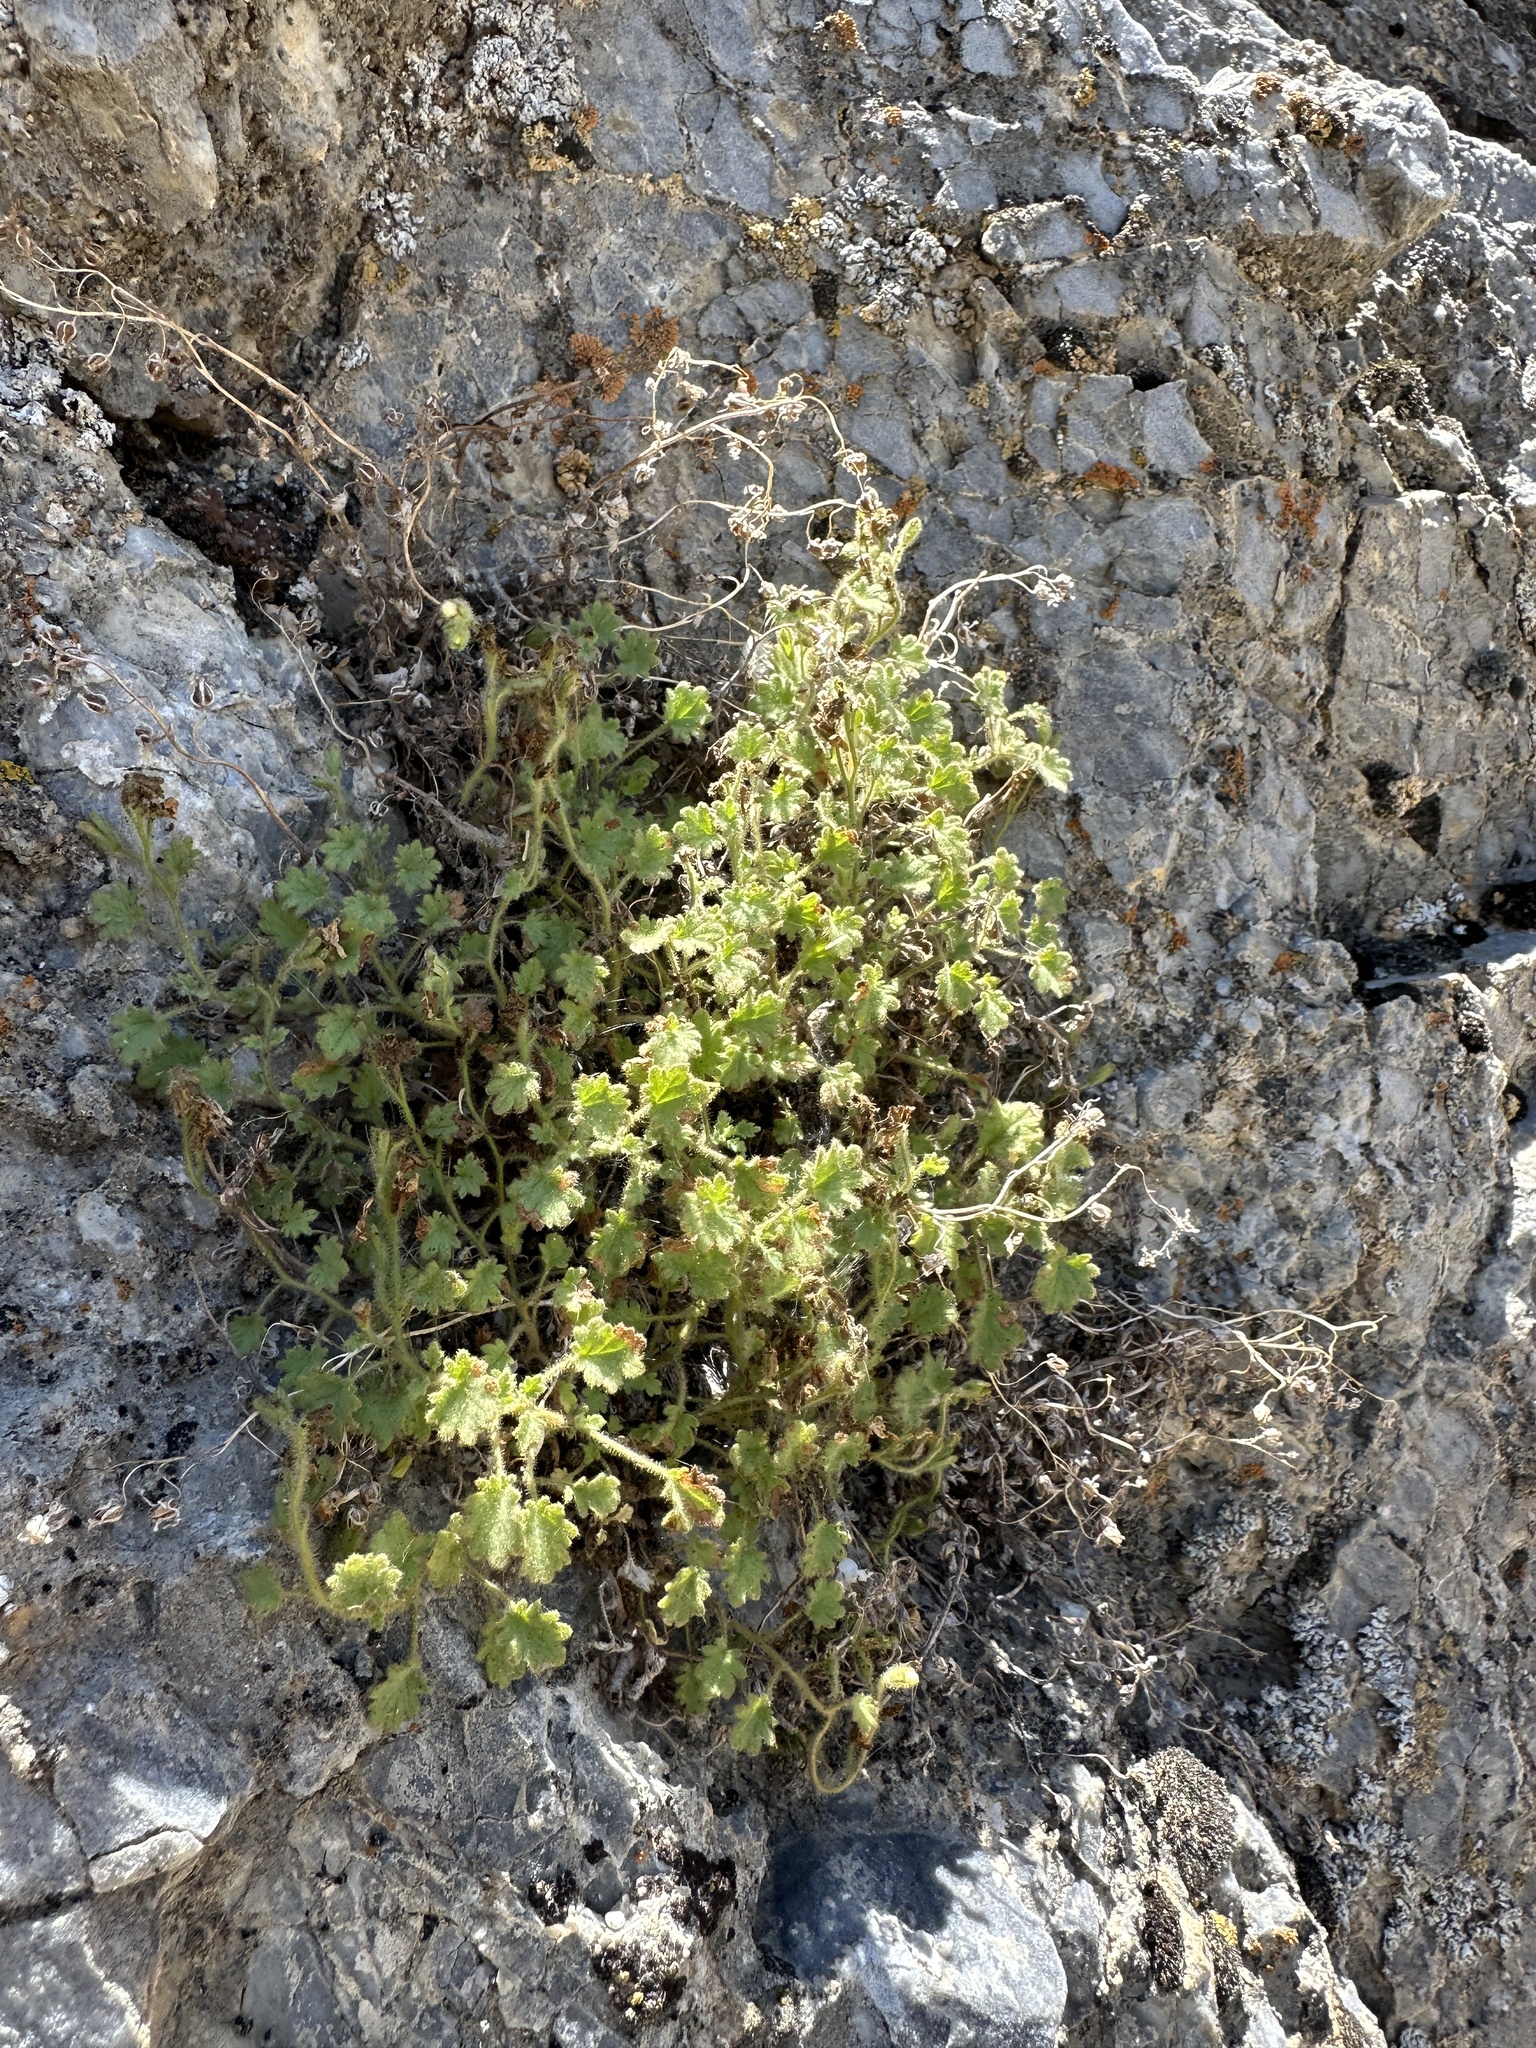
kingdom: Plantae
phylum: Tracheophyta
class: Magnoliopsida
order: Boraginales
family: Hydrophyllaceae
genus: Phacelia
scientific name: Phacelia perityloides
